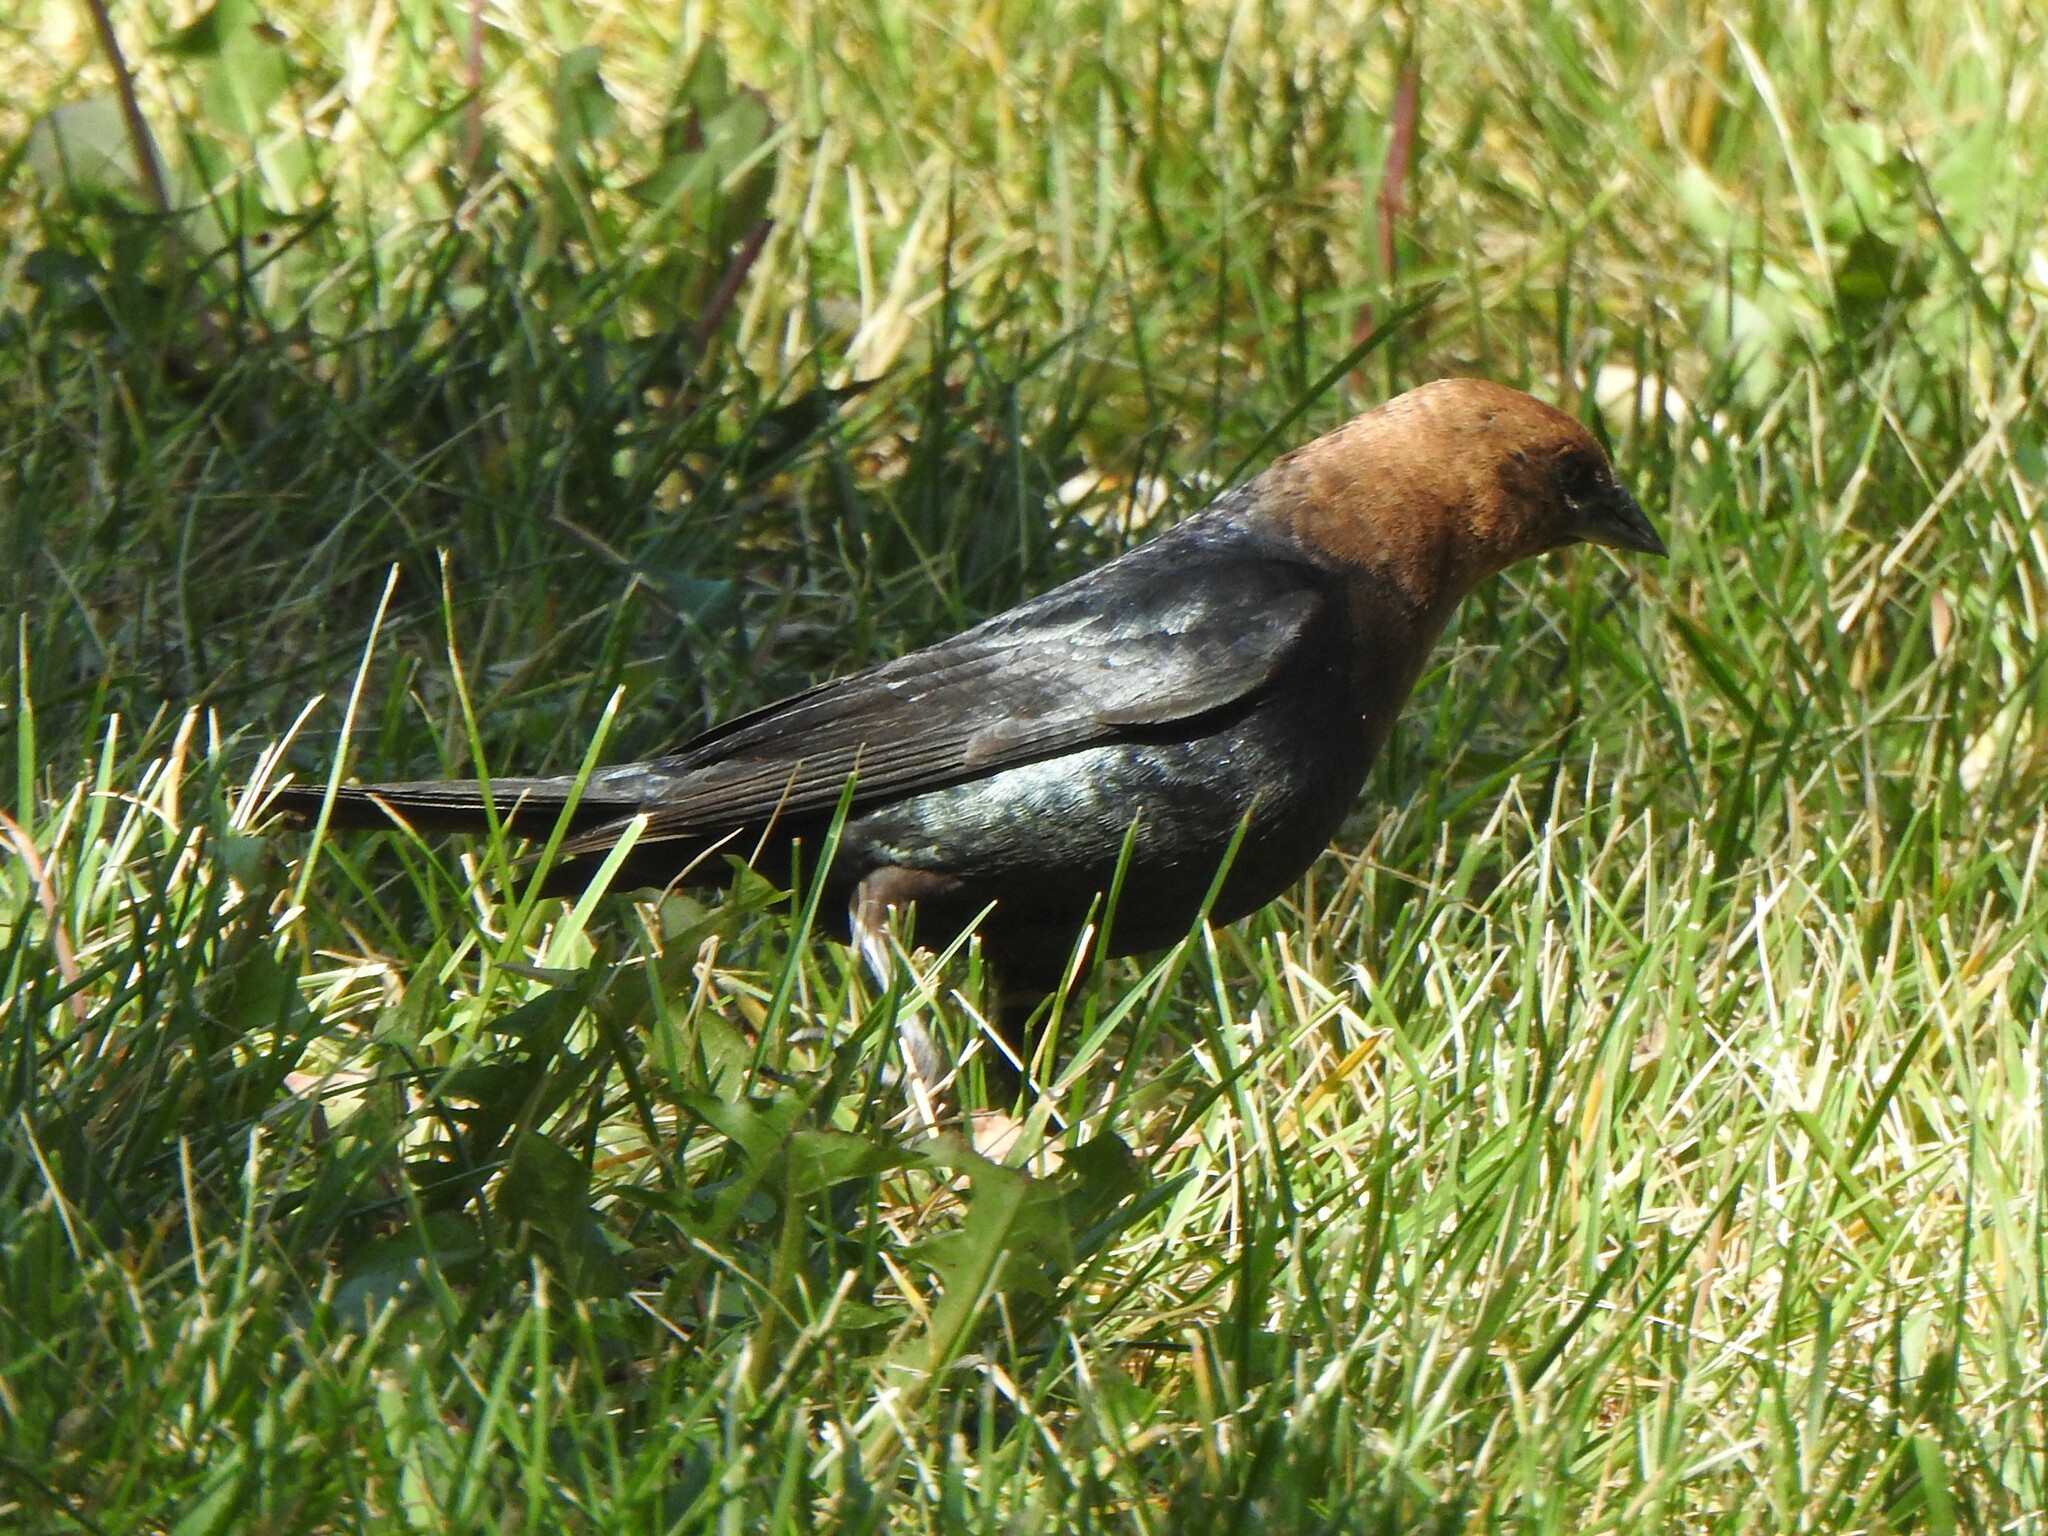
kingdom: Animalia
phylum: Chordata
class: Aves
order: Passeriformes
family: Icteridae
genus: Molothrus
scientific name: Molothrus ater
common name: Brown-headed cowbird
